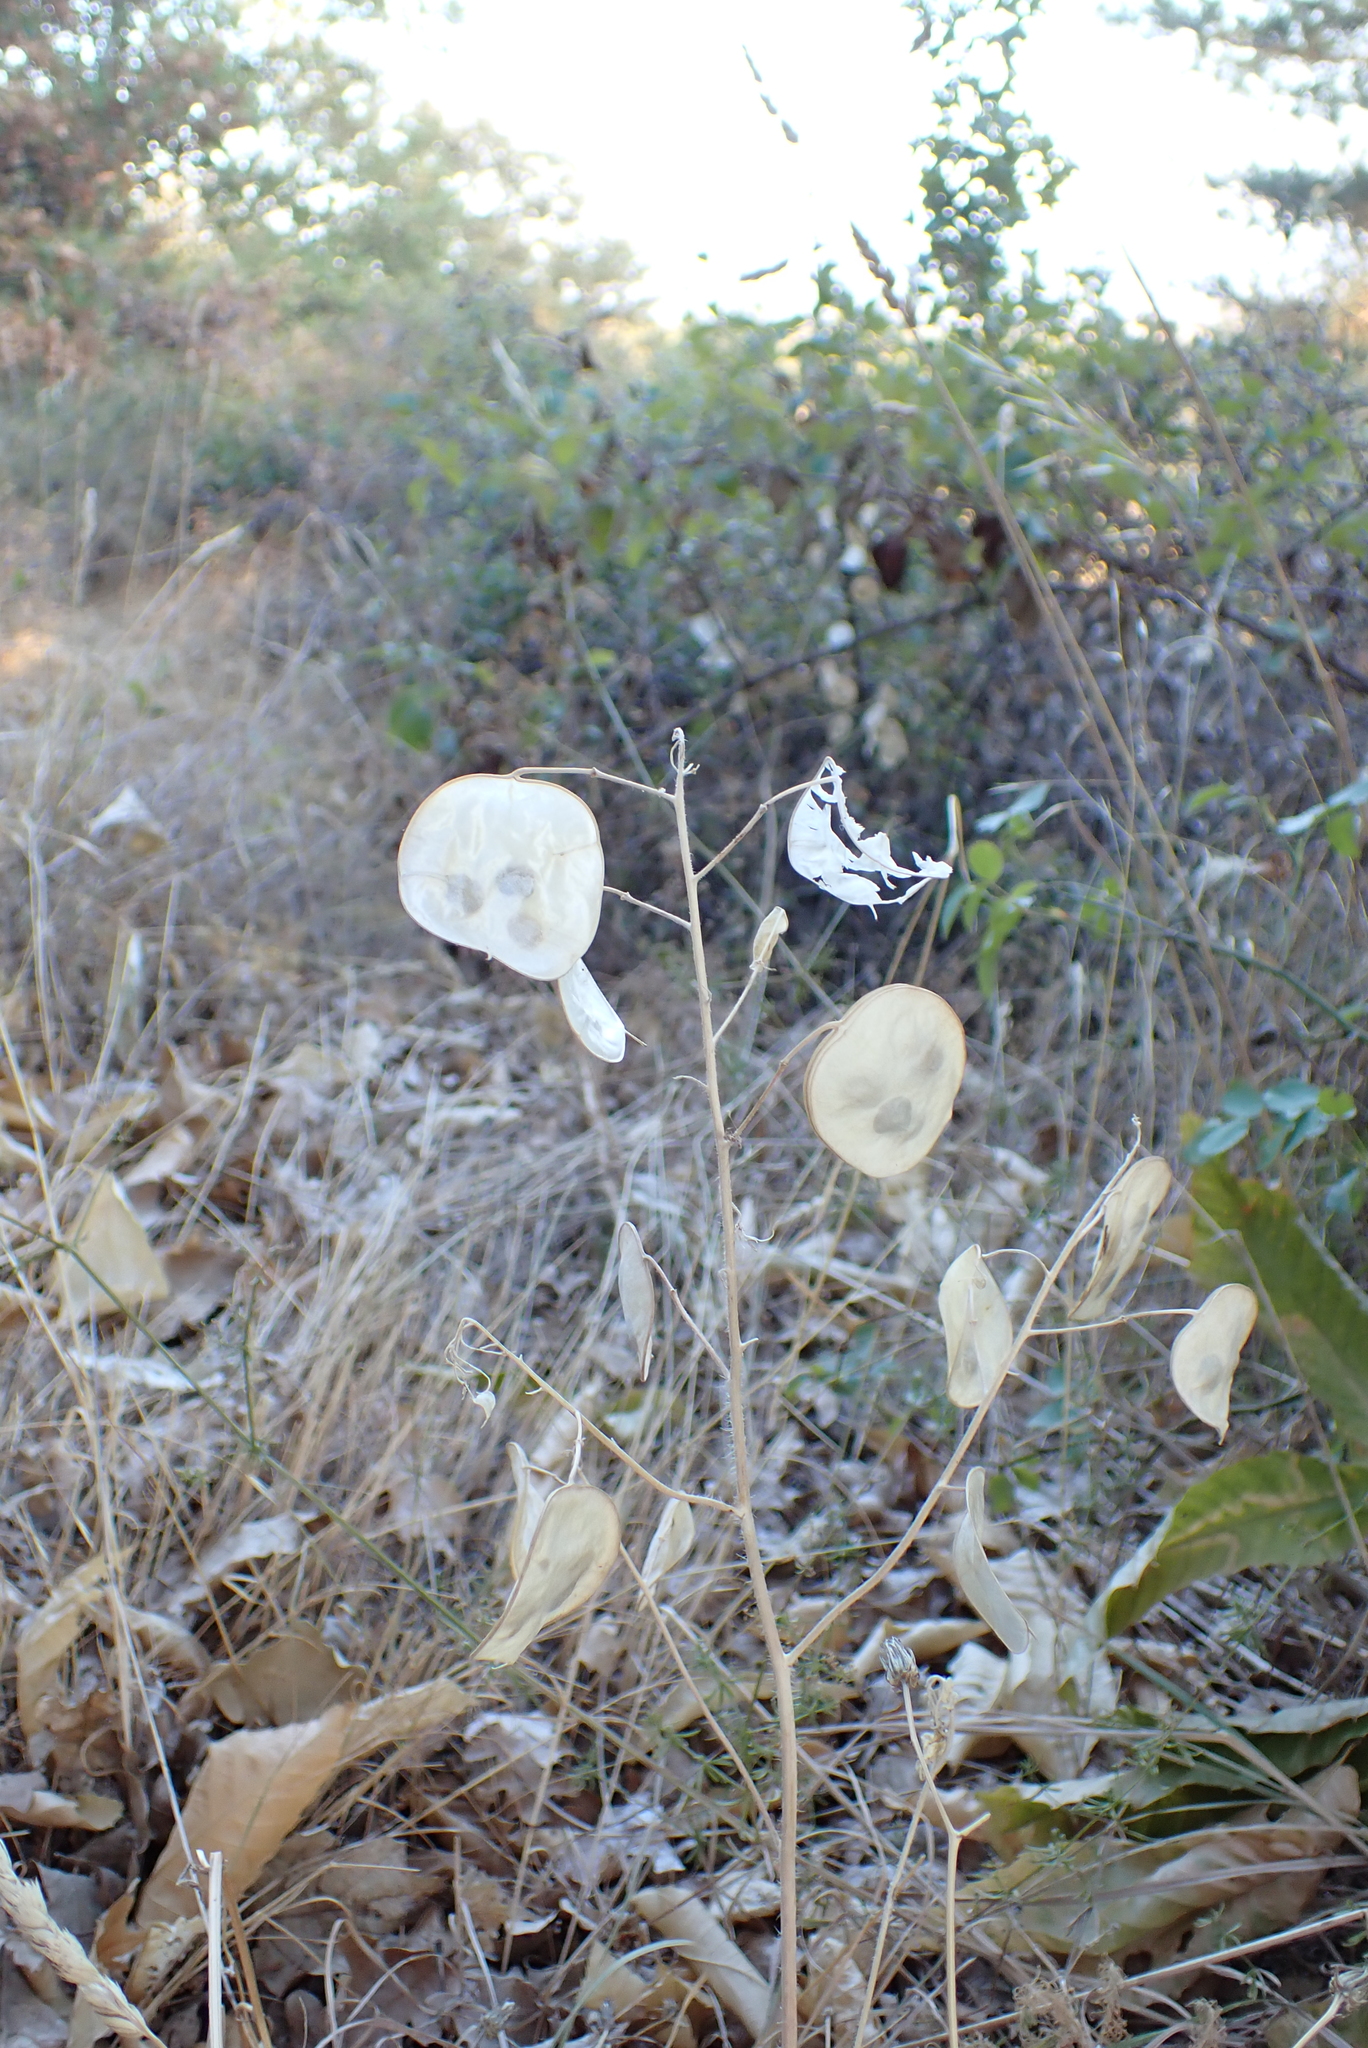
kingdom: Plantae
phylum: Tracheophyta
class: Magnoliopsida
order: Brassicales
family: Brassicaceae
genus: Lunaria
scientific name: Lunaria annua
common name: Honesty
